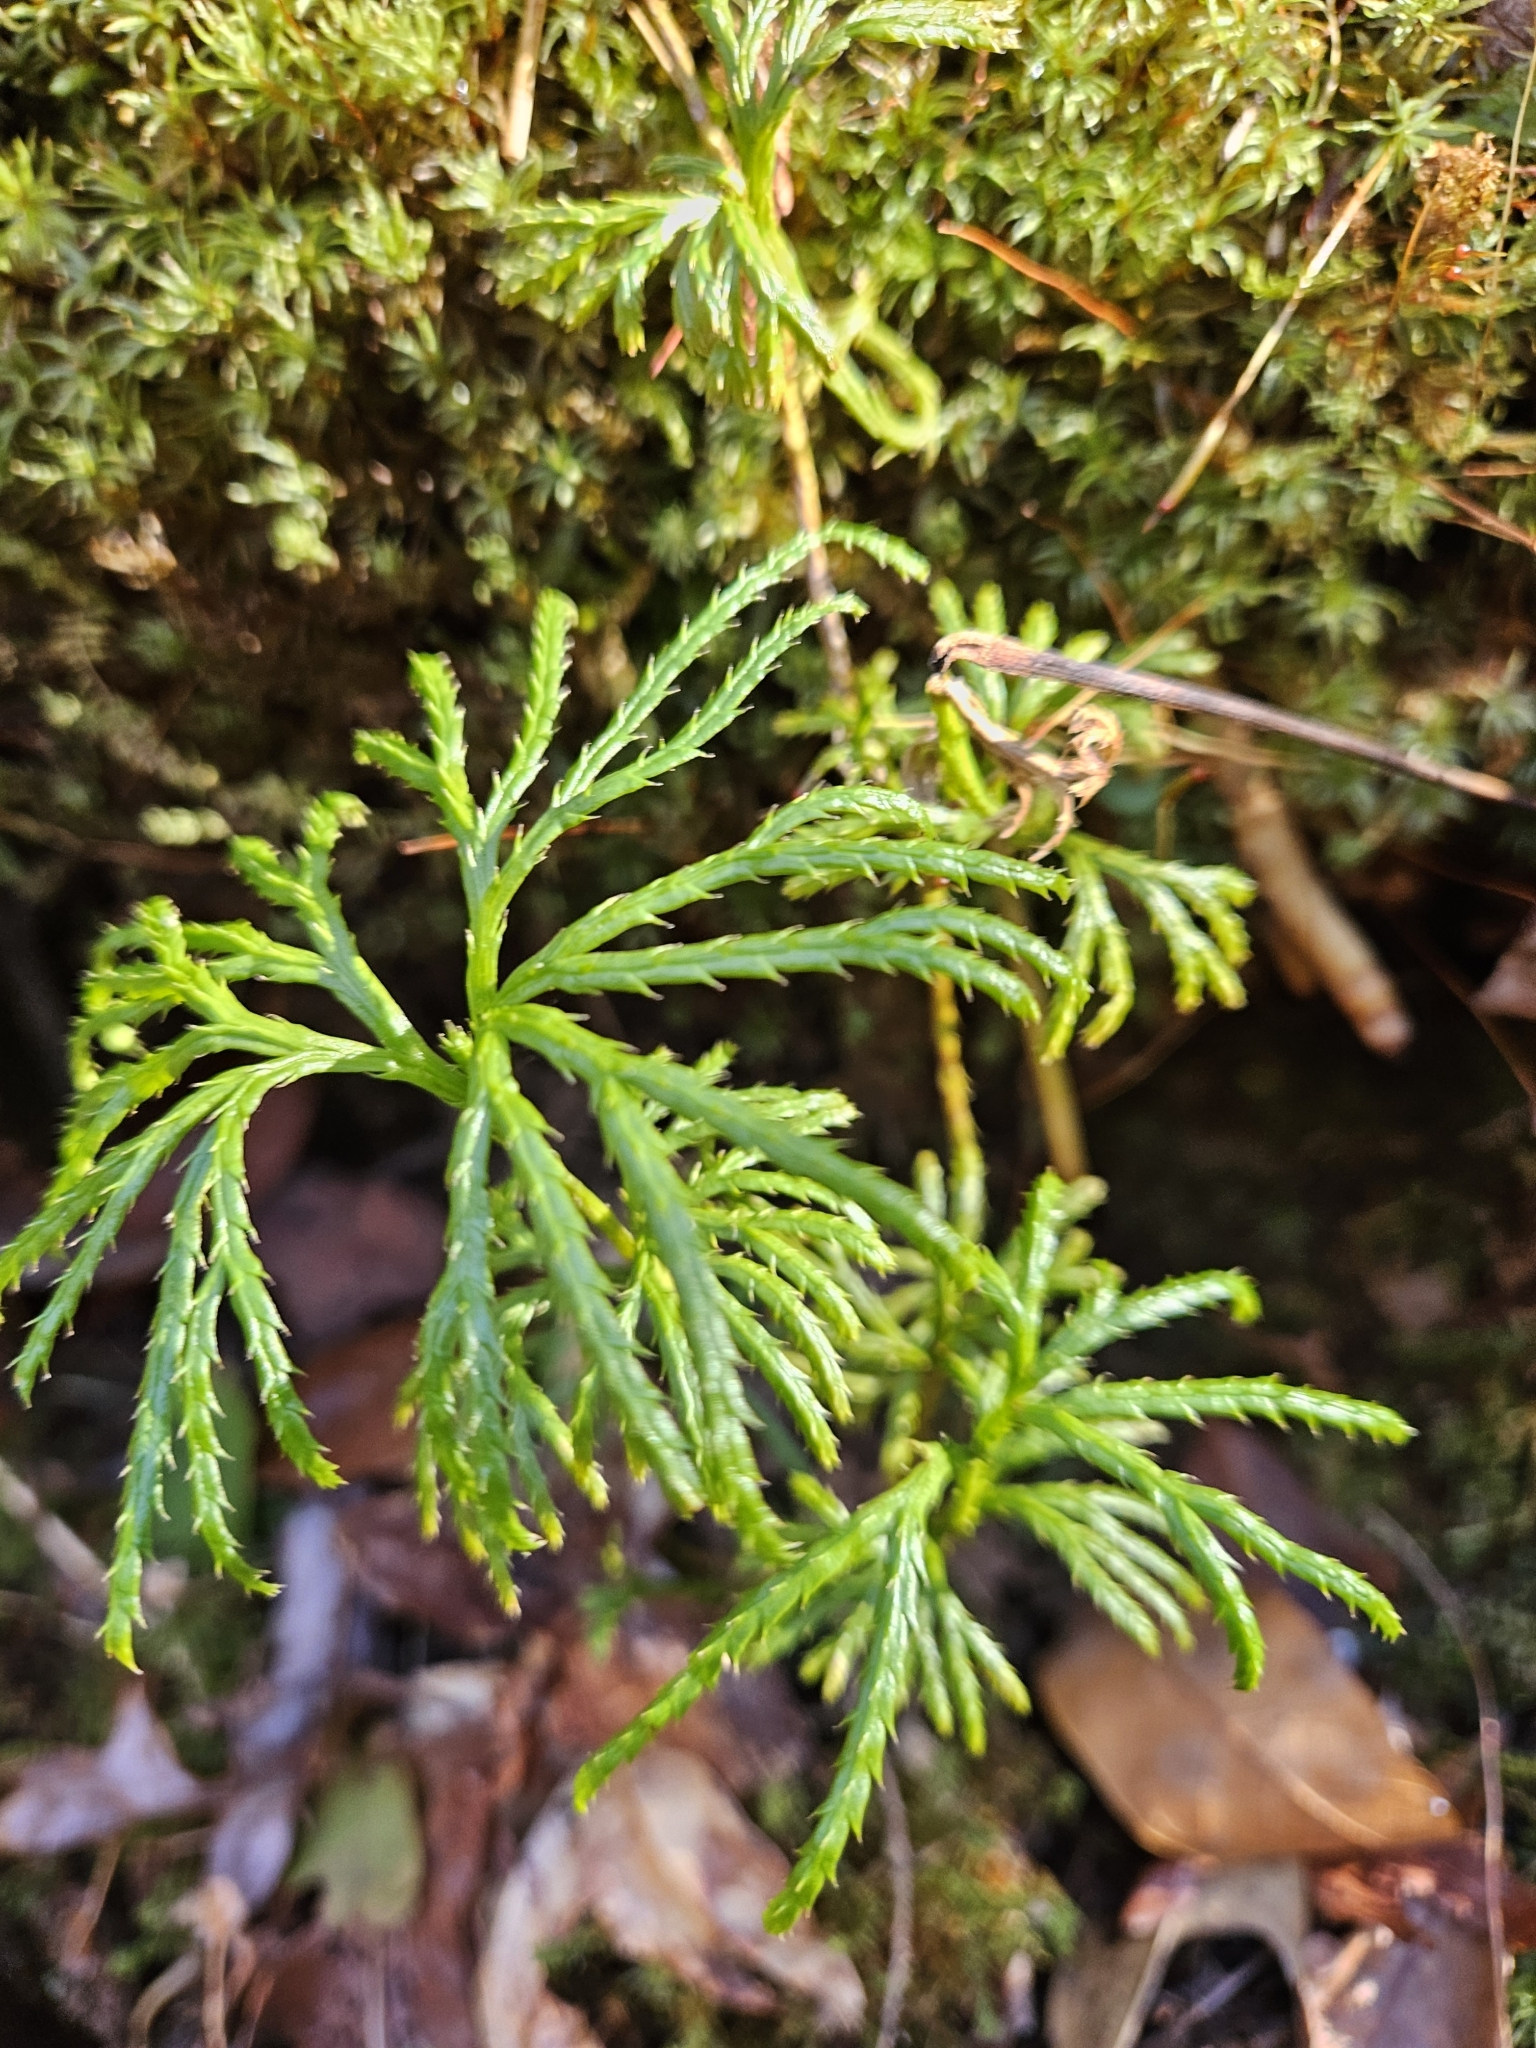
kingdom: Plantae
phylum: Tracheophyta
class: Lycopodiopsida
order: Lycopodiales
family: Lycopodiaceae
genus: Diphasiastrum
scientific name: Diphasiastrum digitatum
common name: Southern running-pine
